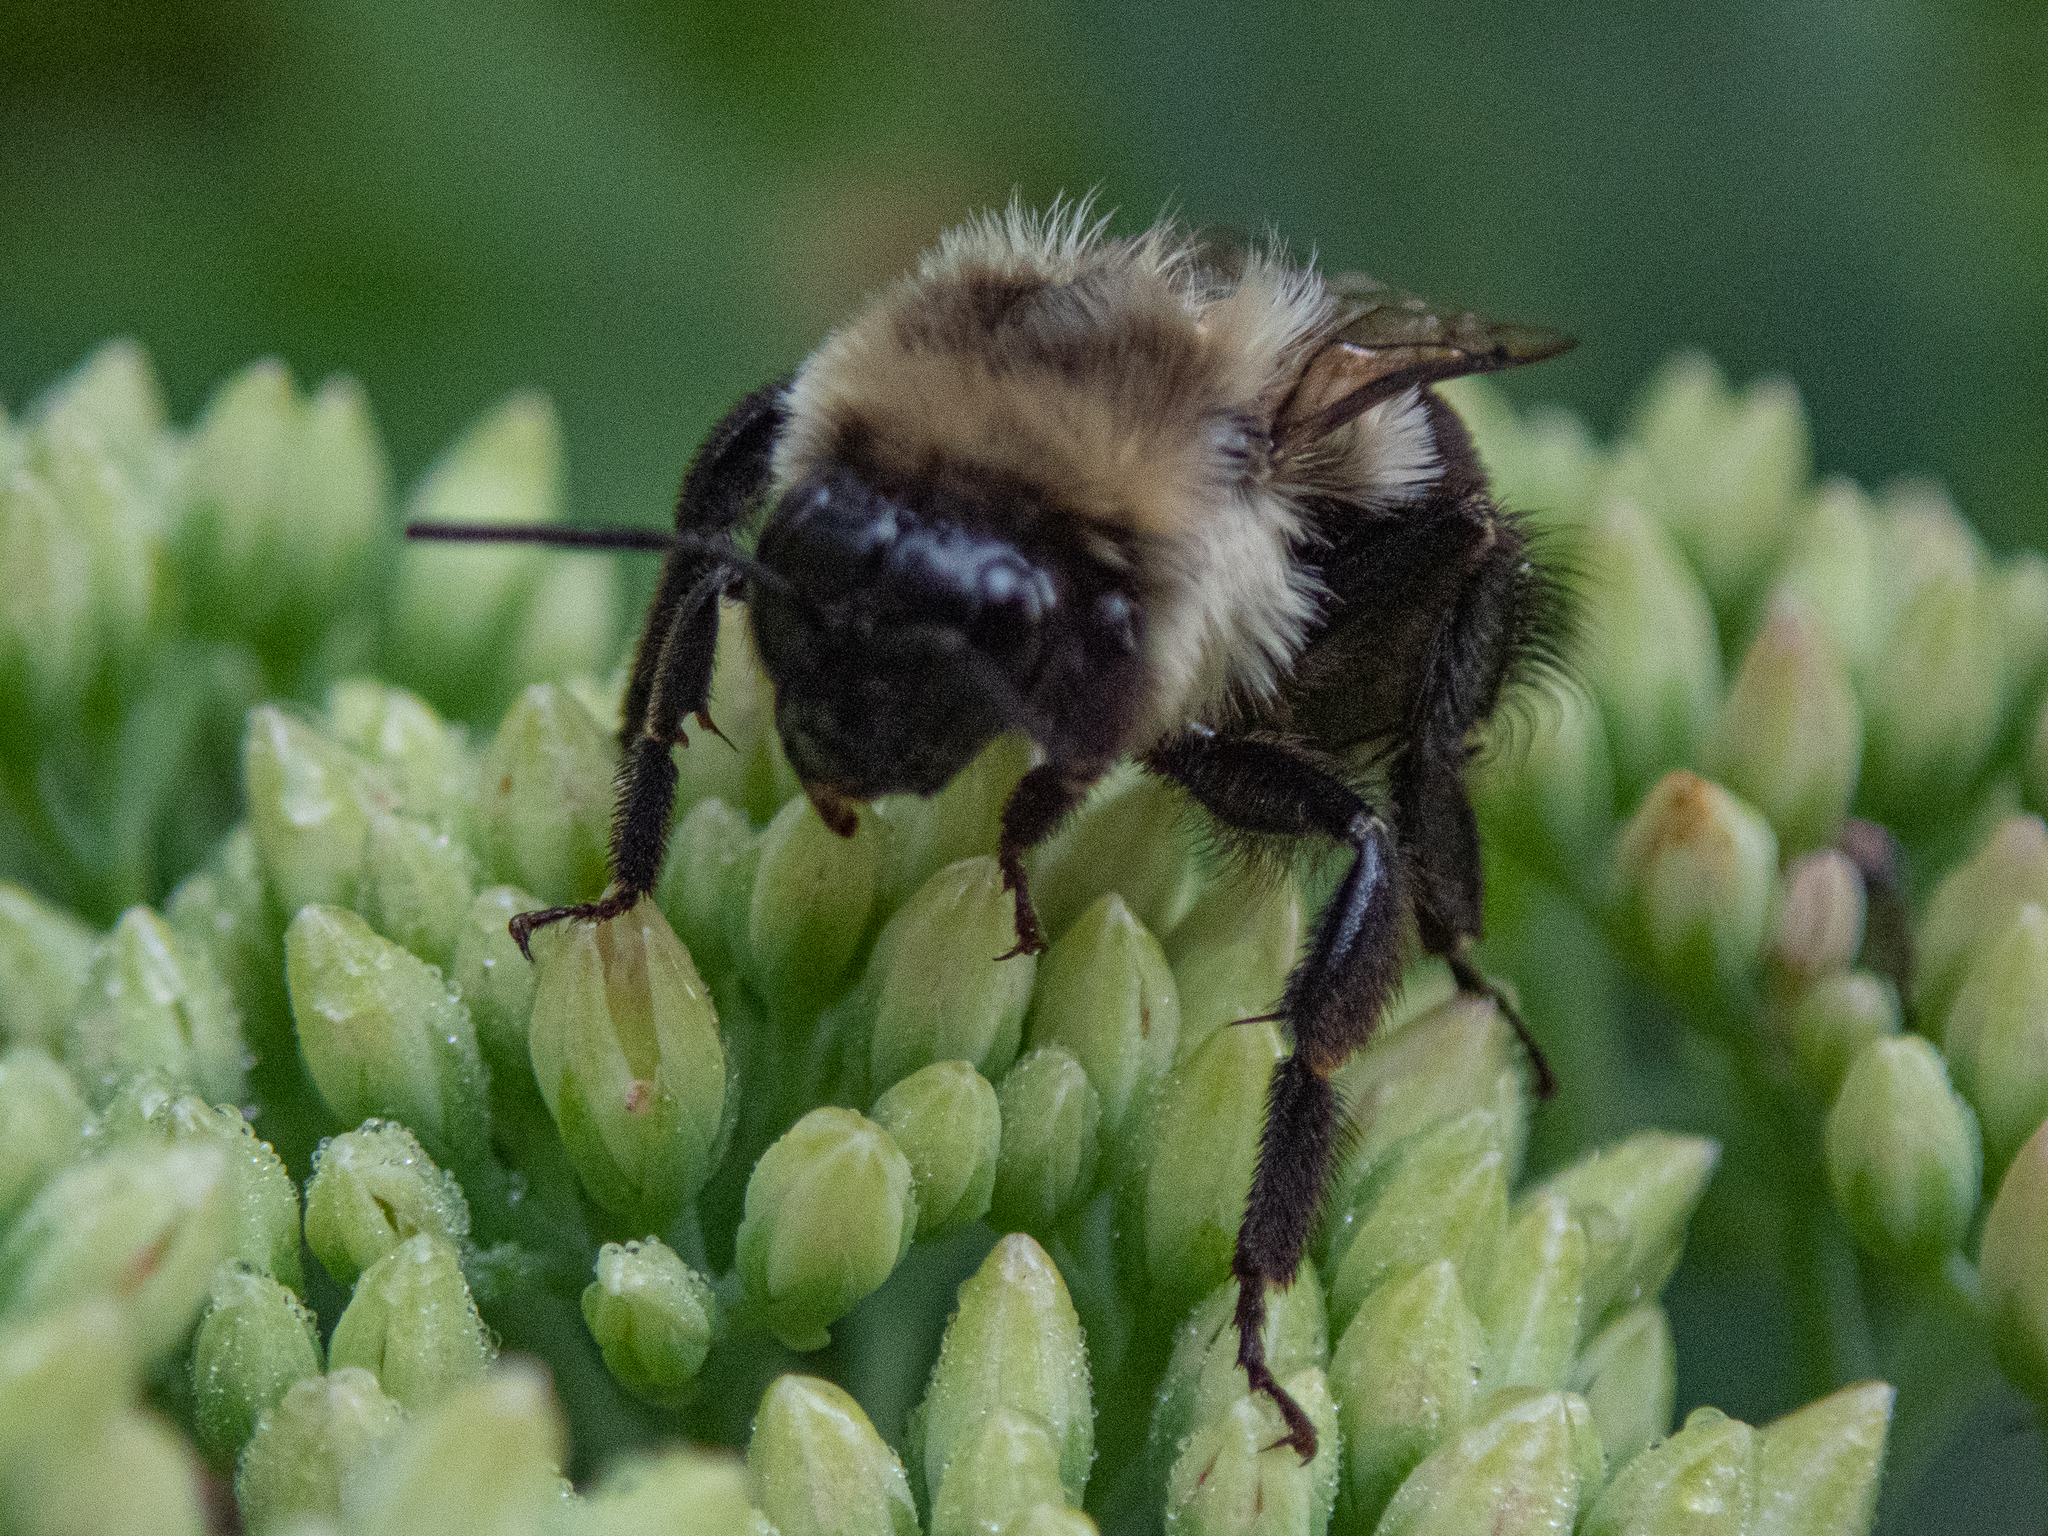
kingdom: Animalia
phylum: Arthropoda
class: Insecta
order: Hymenoptera
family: Apidae
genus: Bombus
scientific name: Bombus impatiens
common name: Common eastern bumble bee
